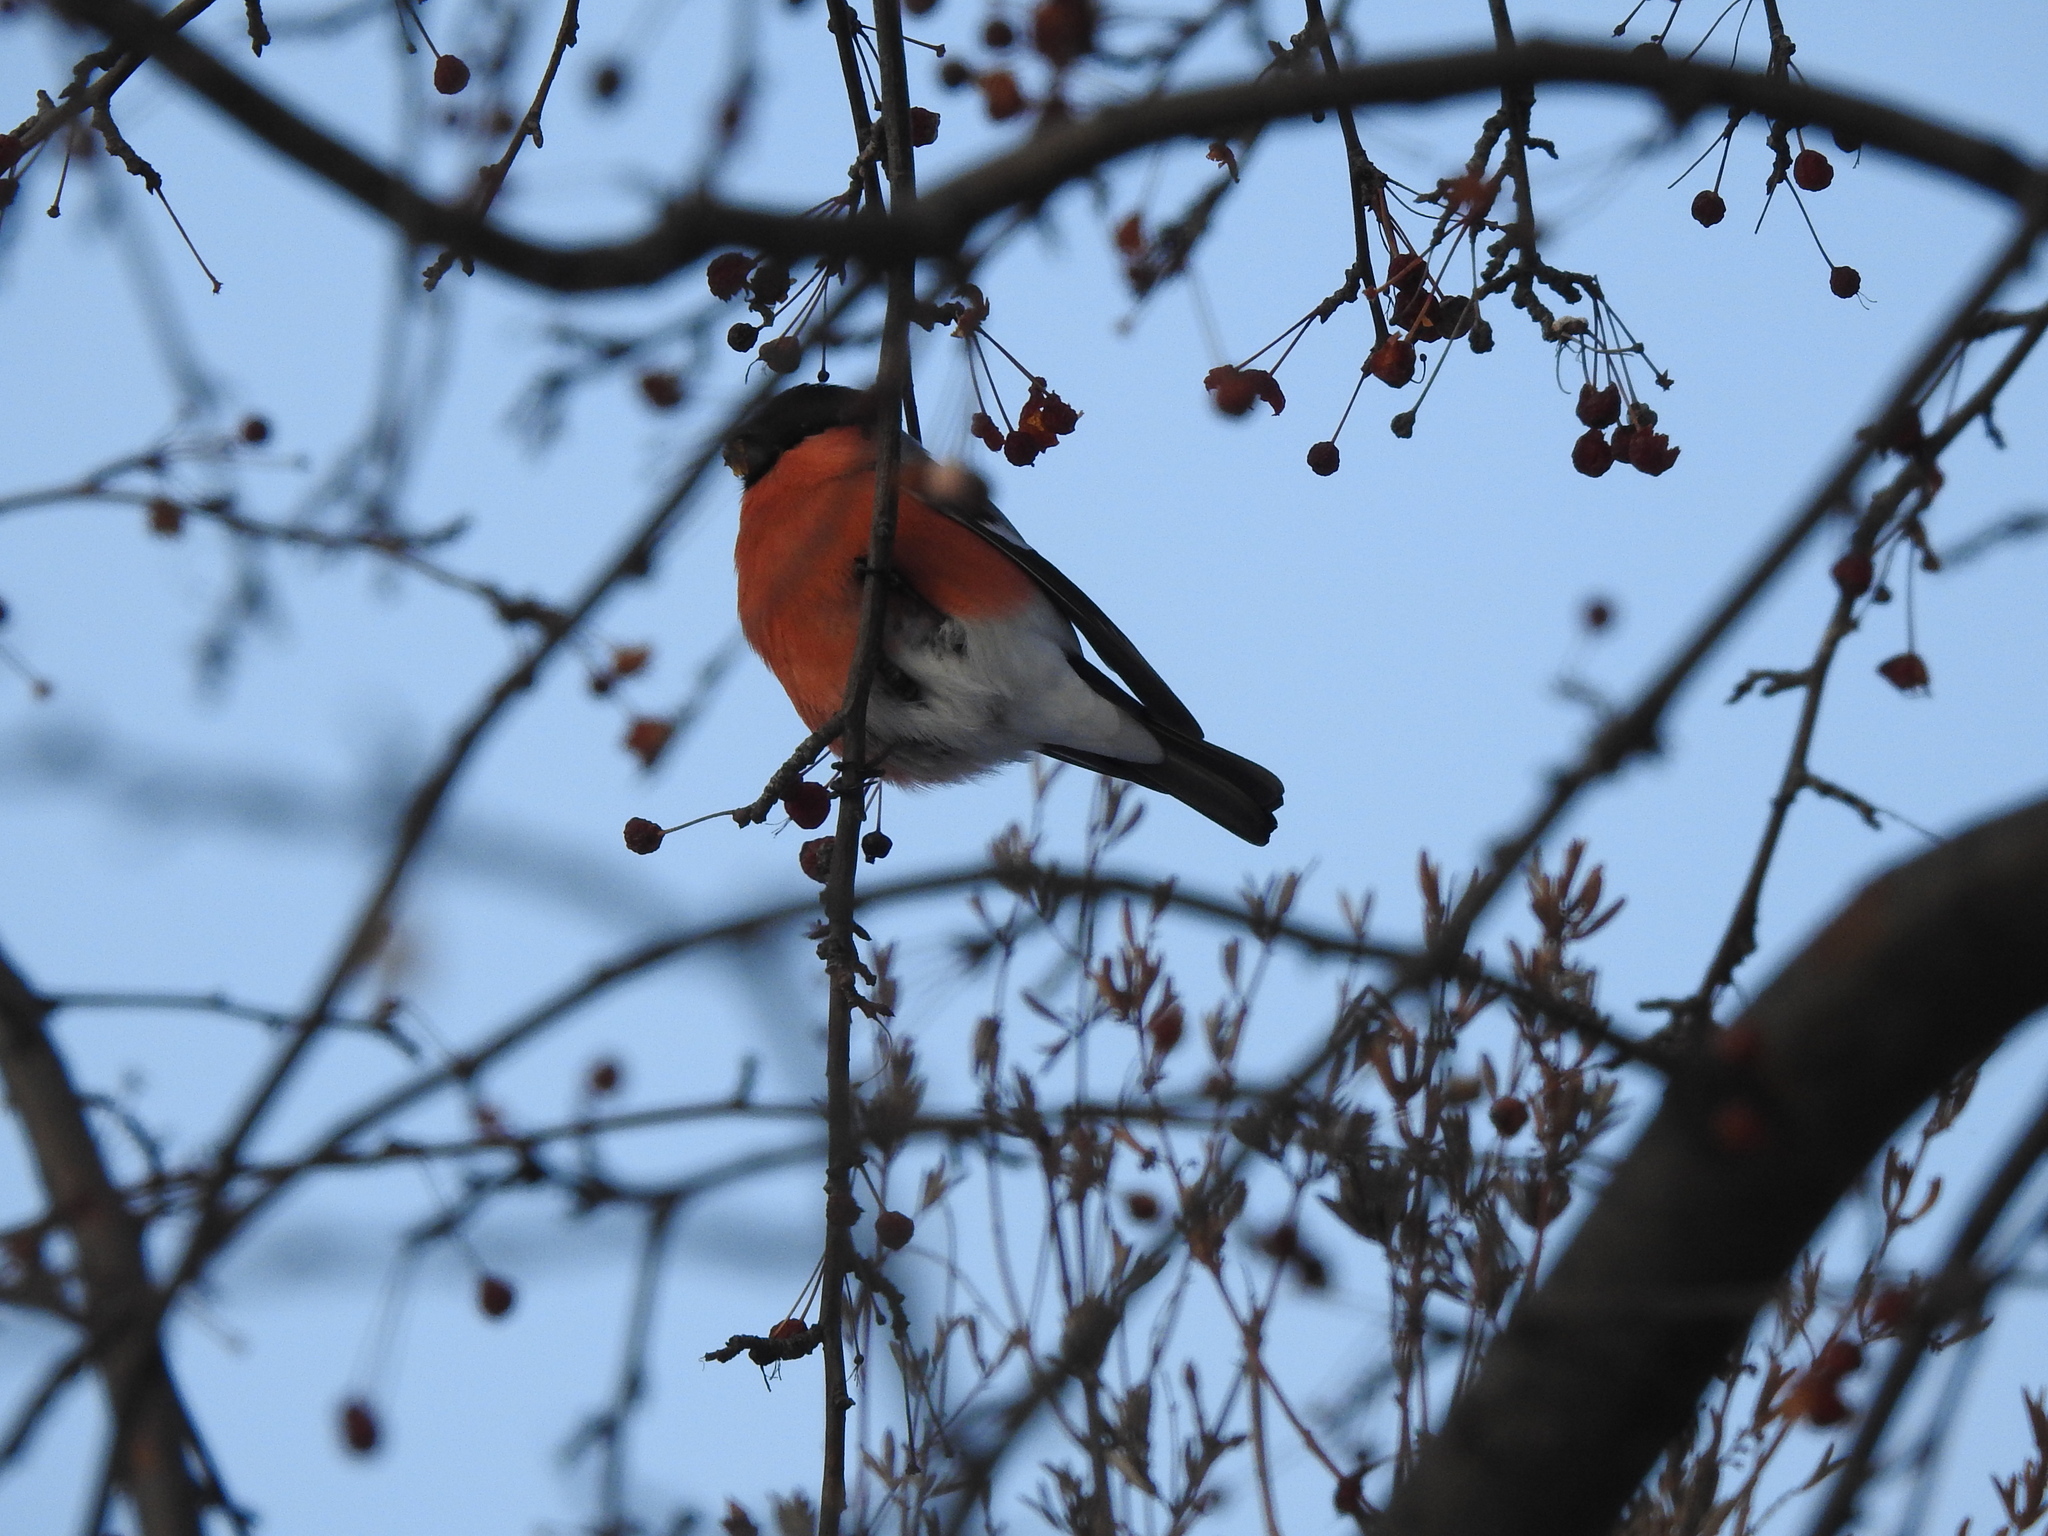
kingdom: Animalia
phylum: Chordata
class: Aves
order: Passeriformes
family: Fringillidae
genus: Pyrrhula
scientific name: Pyrrhula pyrrhula
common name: Eurasian bullfinch
